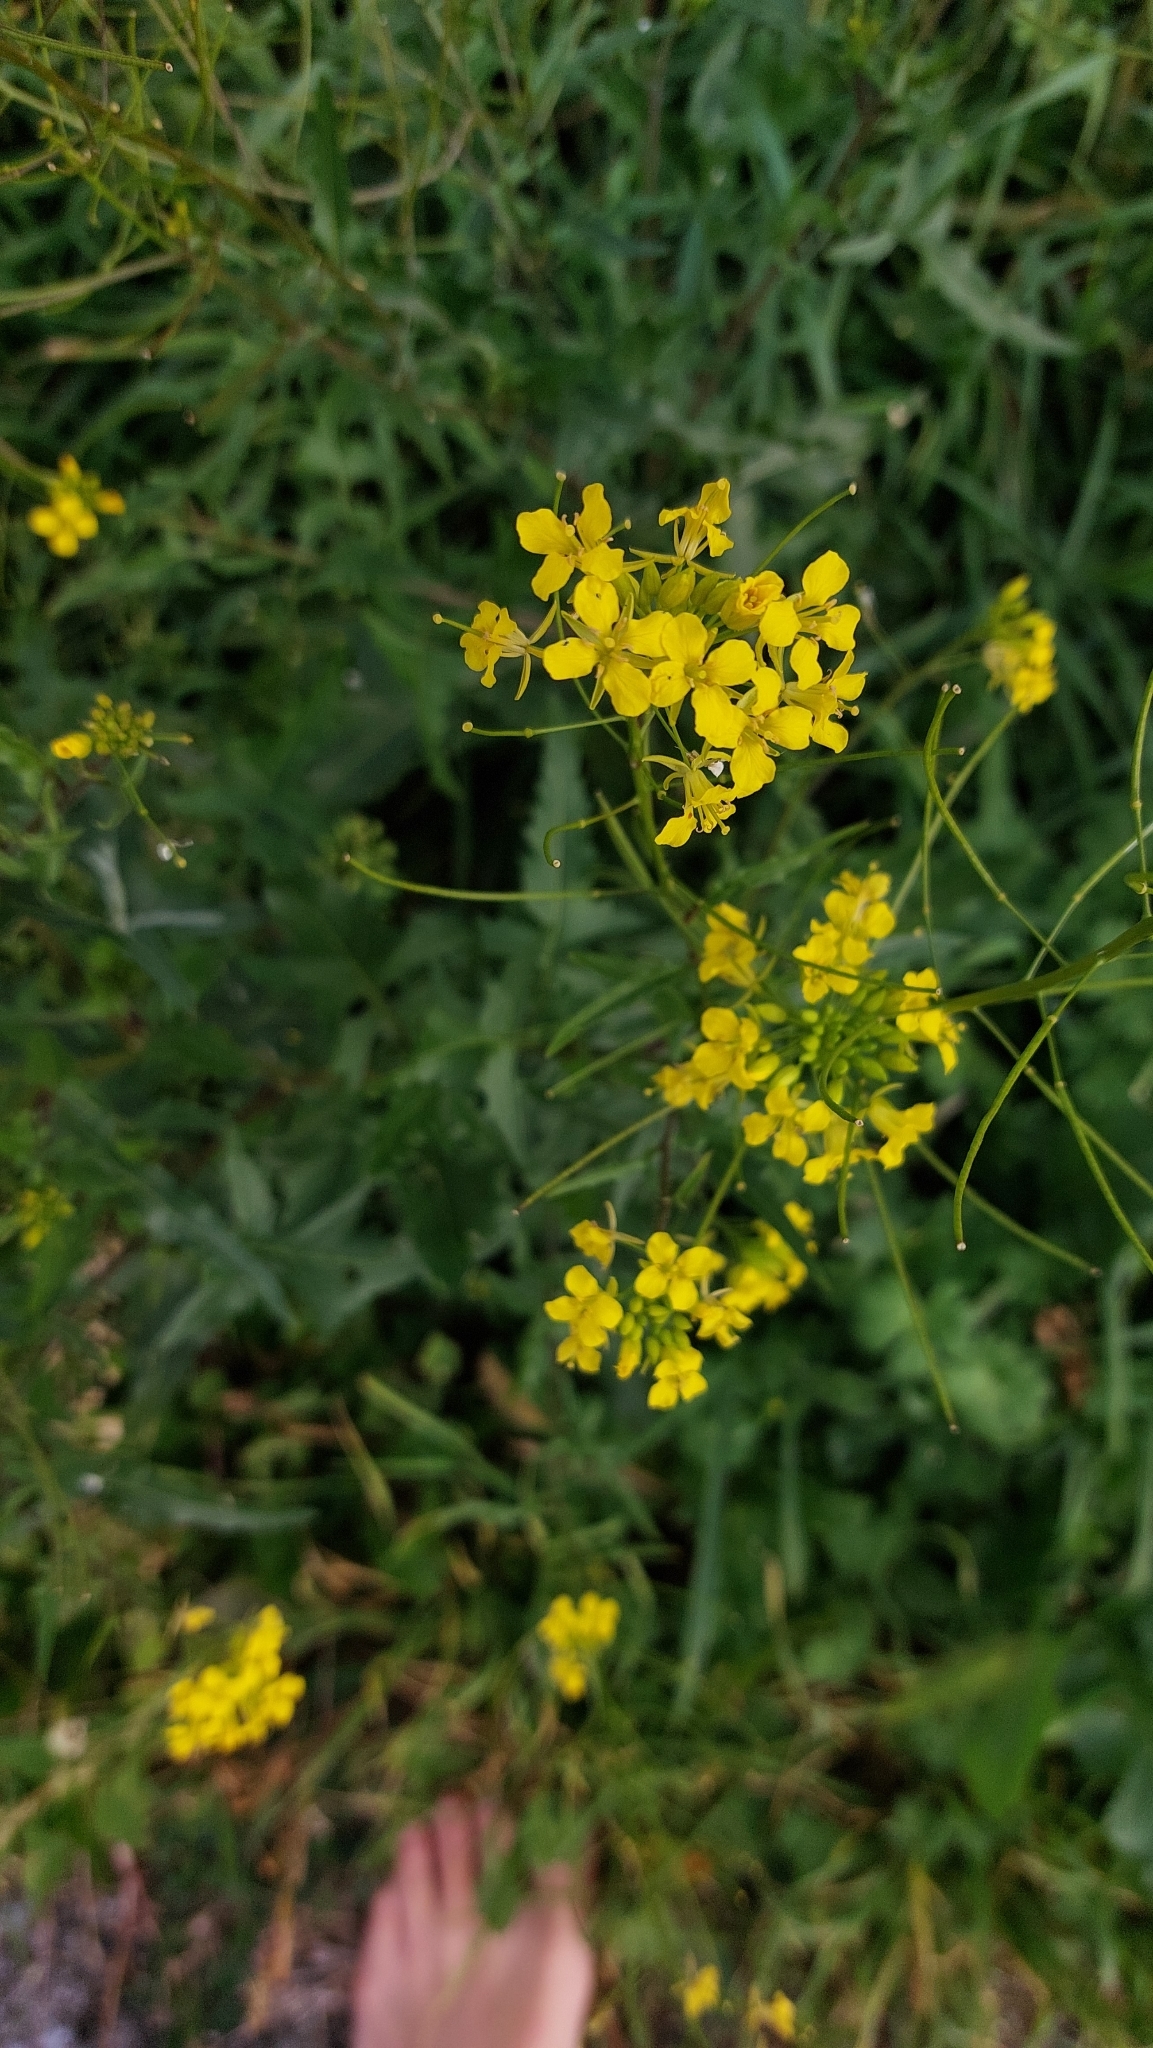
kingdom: Plantae
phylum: Tracheophyta
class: Magnoliopsida
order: Brassicales
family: Brassicaceae
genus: Sisymbrium
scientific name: Sisymbrium loeselii
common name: False london-rocket
